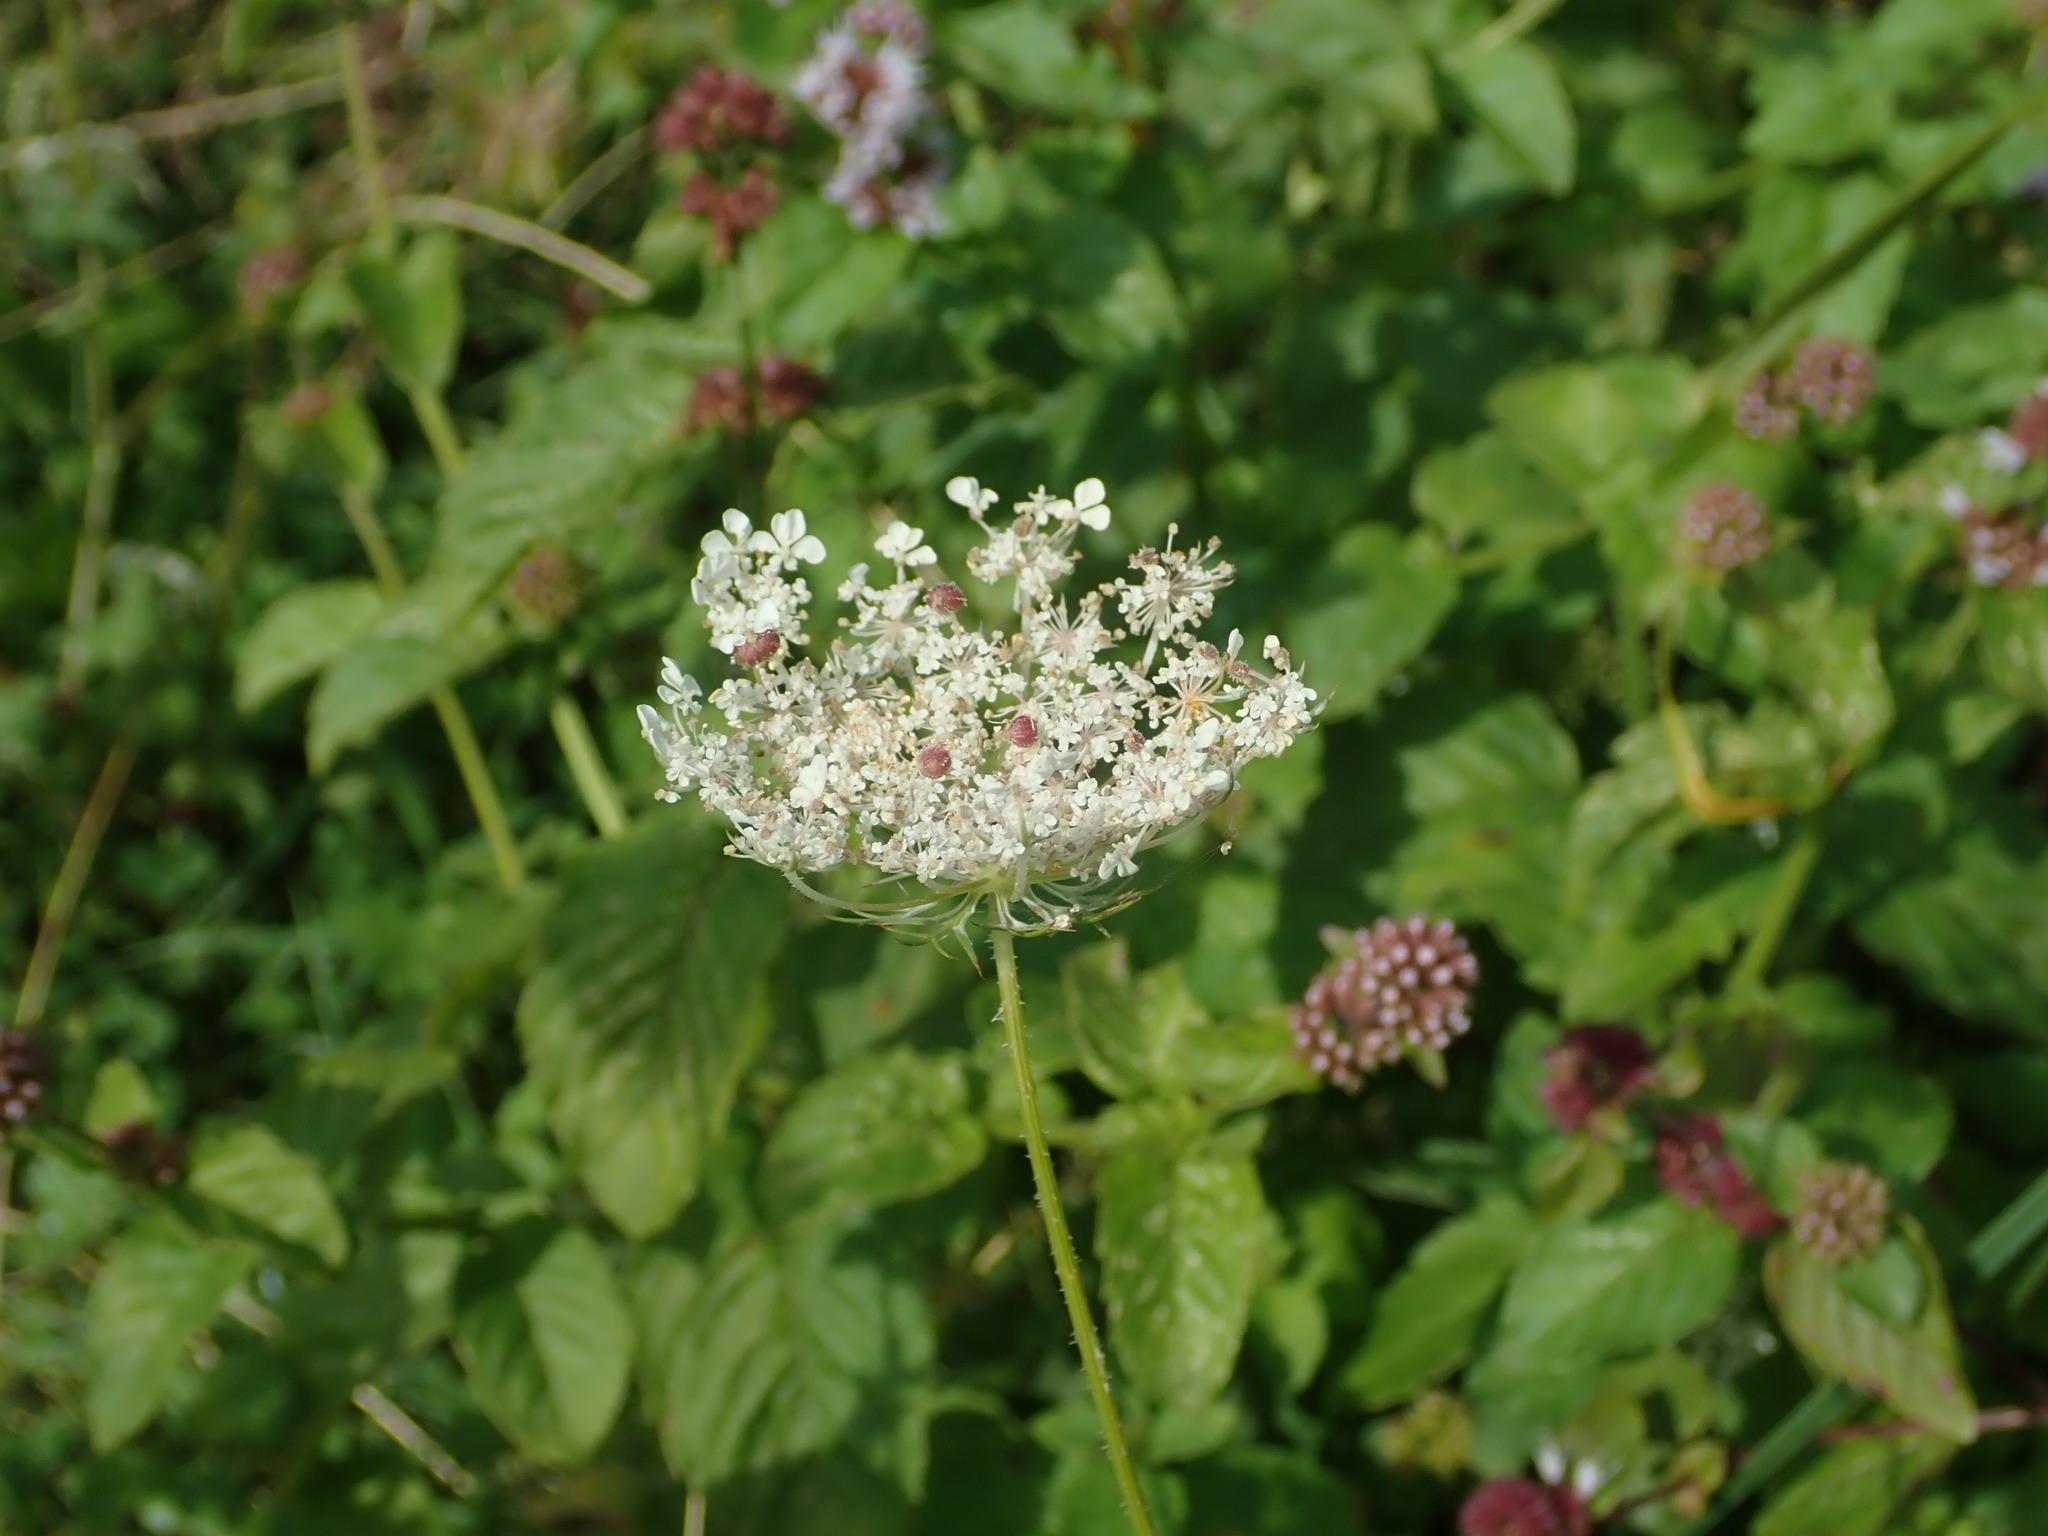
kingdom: Plantae
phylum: Tracheophyta
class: Magnoliopsida
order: Apiales
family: Apiaceae
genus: Daucus
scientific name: Daucus carota
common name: Wild carrot
